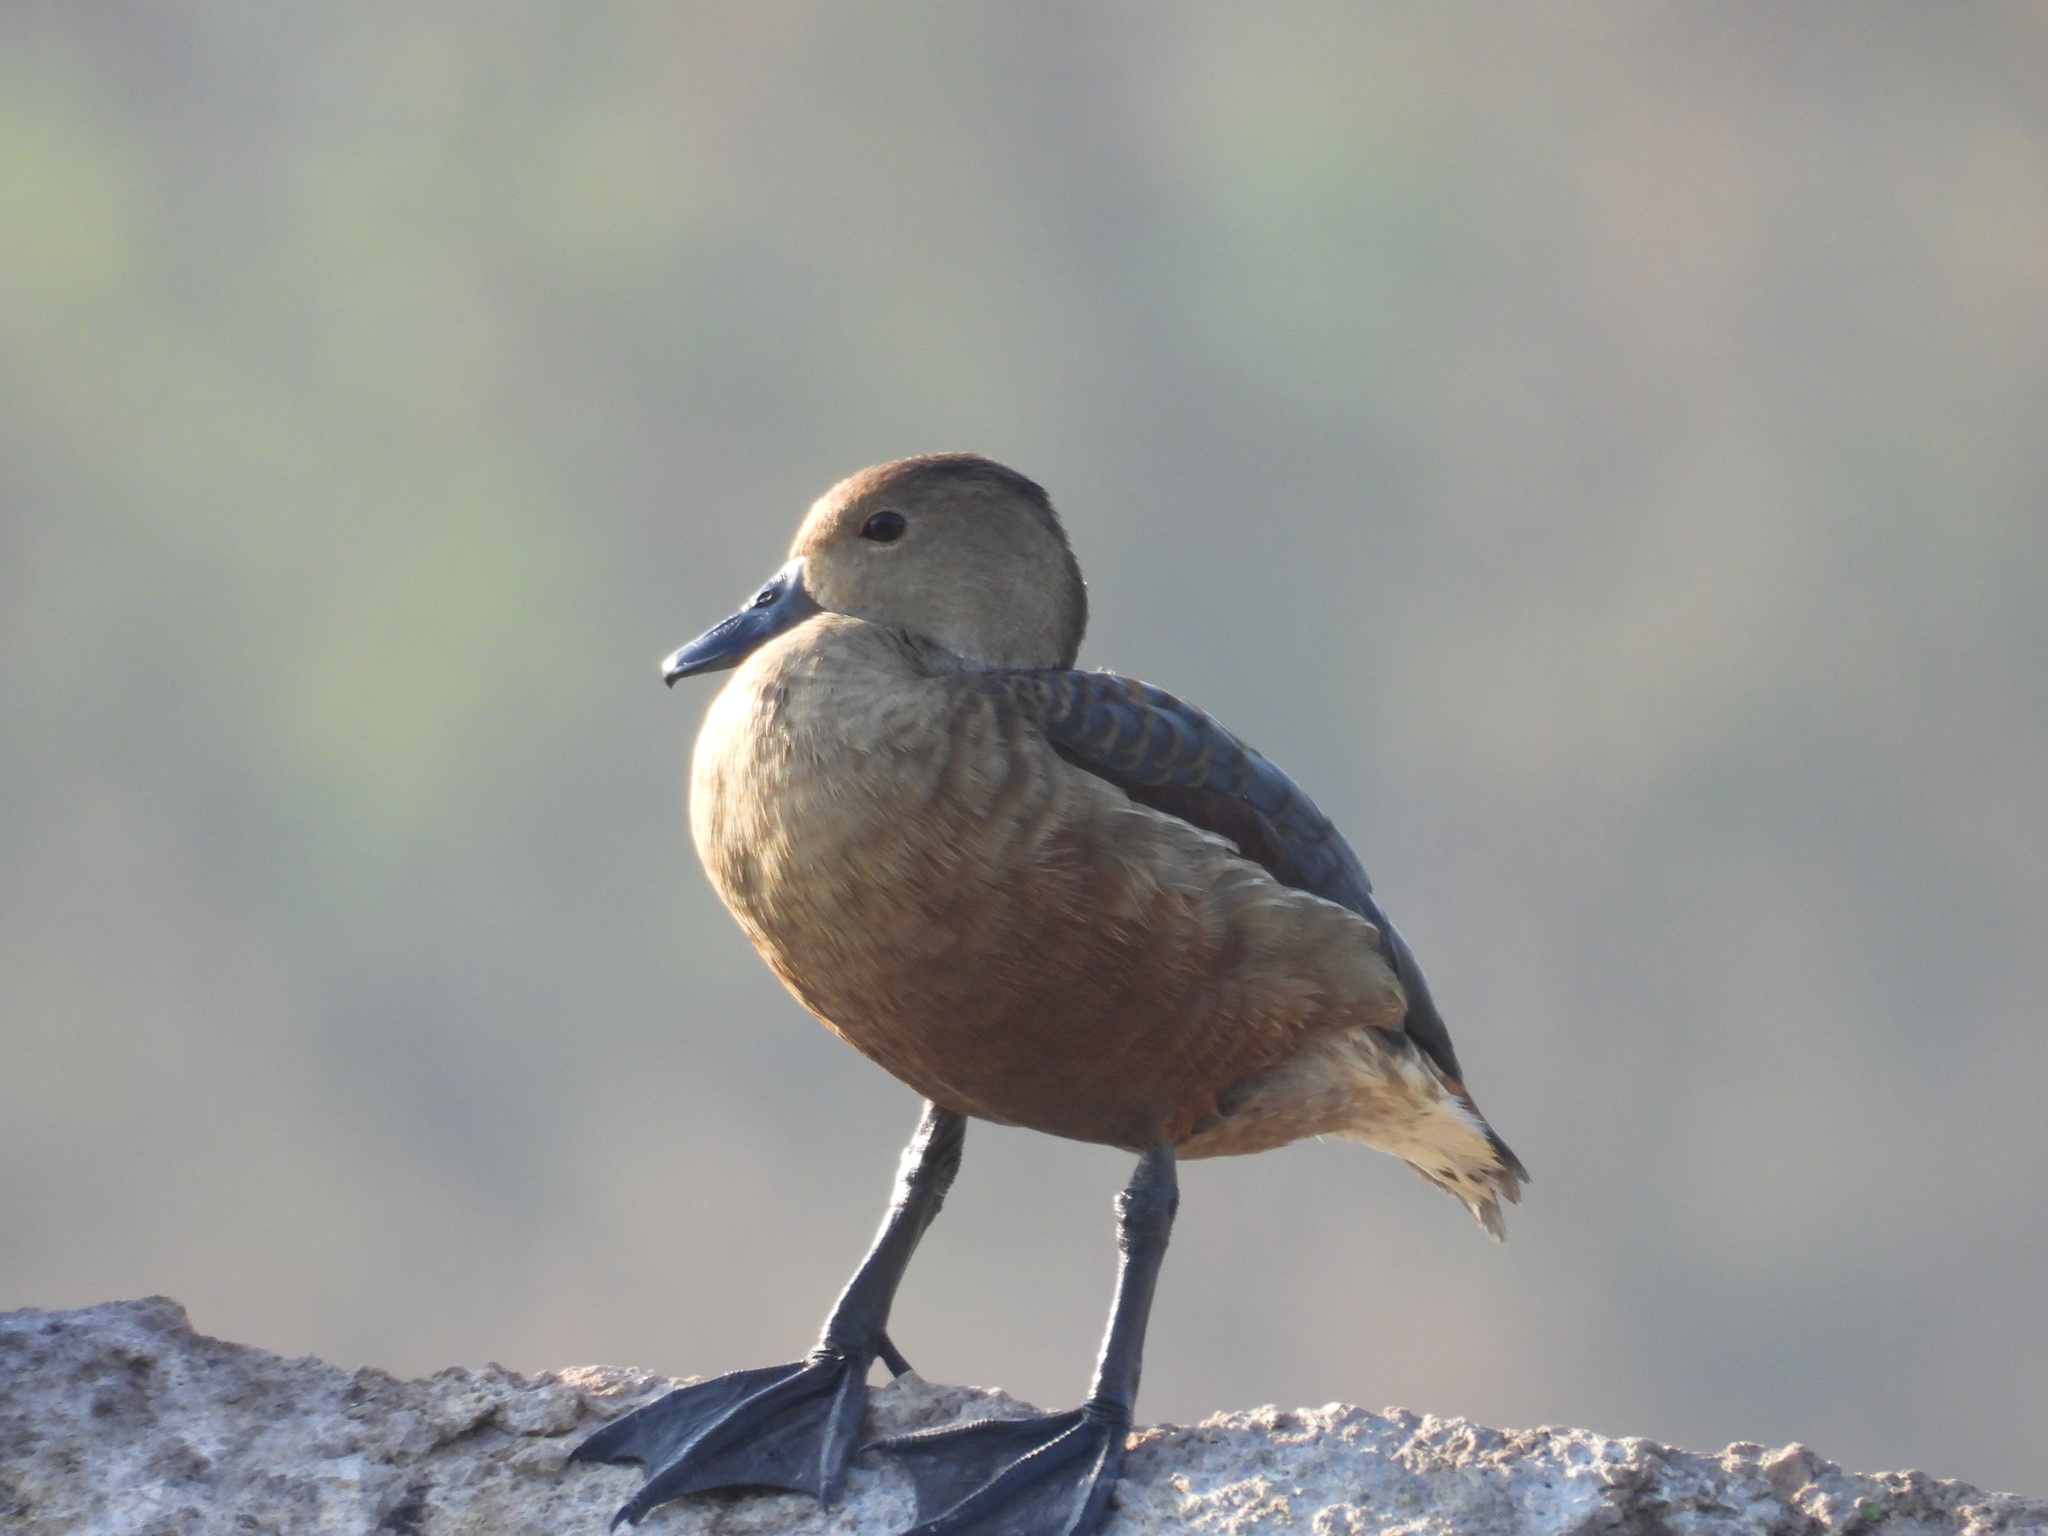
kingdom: Animalia
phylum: Chordata
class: Aves
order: Anseriformes
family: Anatidae
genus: Dendrocygna
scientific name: Dendrocygna javanica
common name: Lesser whistling-duck
